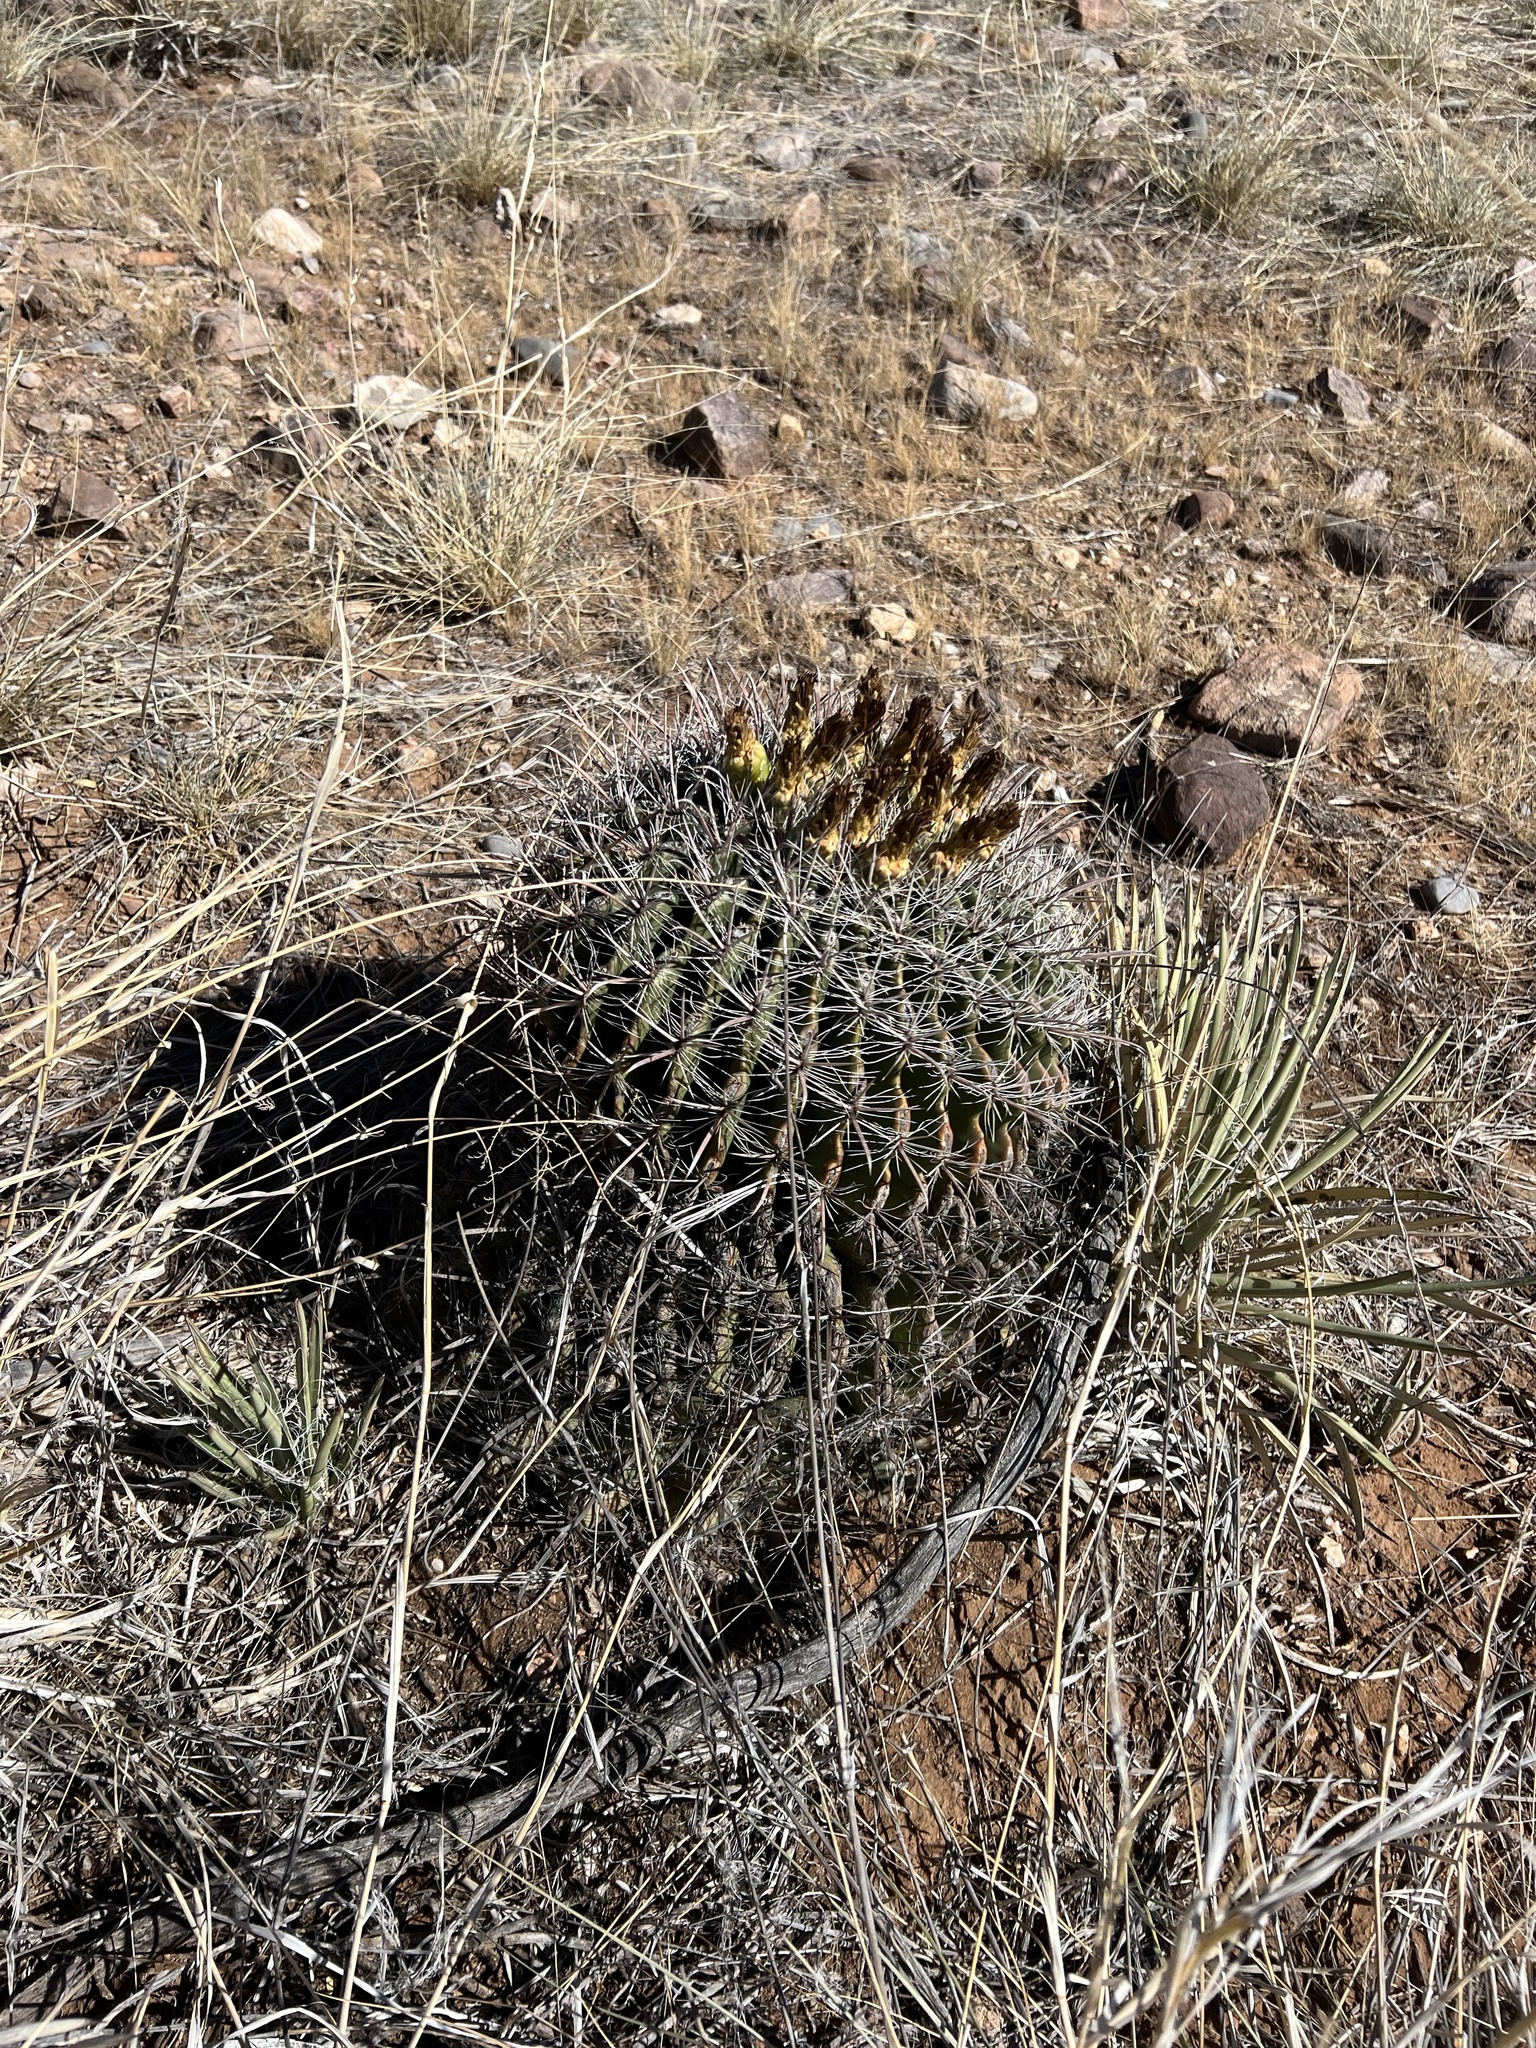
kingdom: Plantae
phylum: Tracheophyta
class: Magnoliopsida
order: Caryophyllales
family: Cactaceae
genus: Ferocactus
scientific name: Ferocactus wislizeni
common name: Candy barrel cactus
